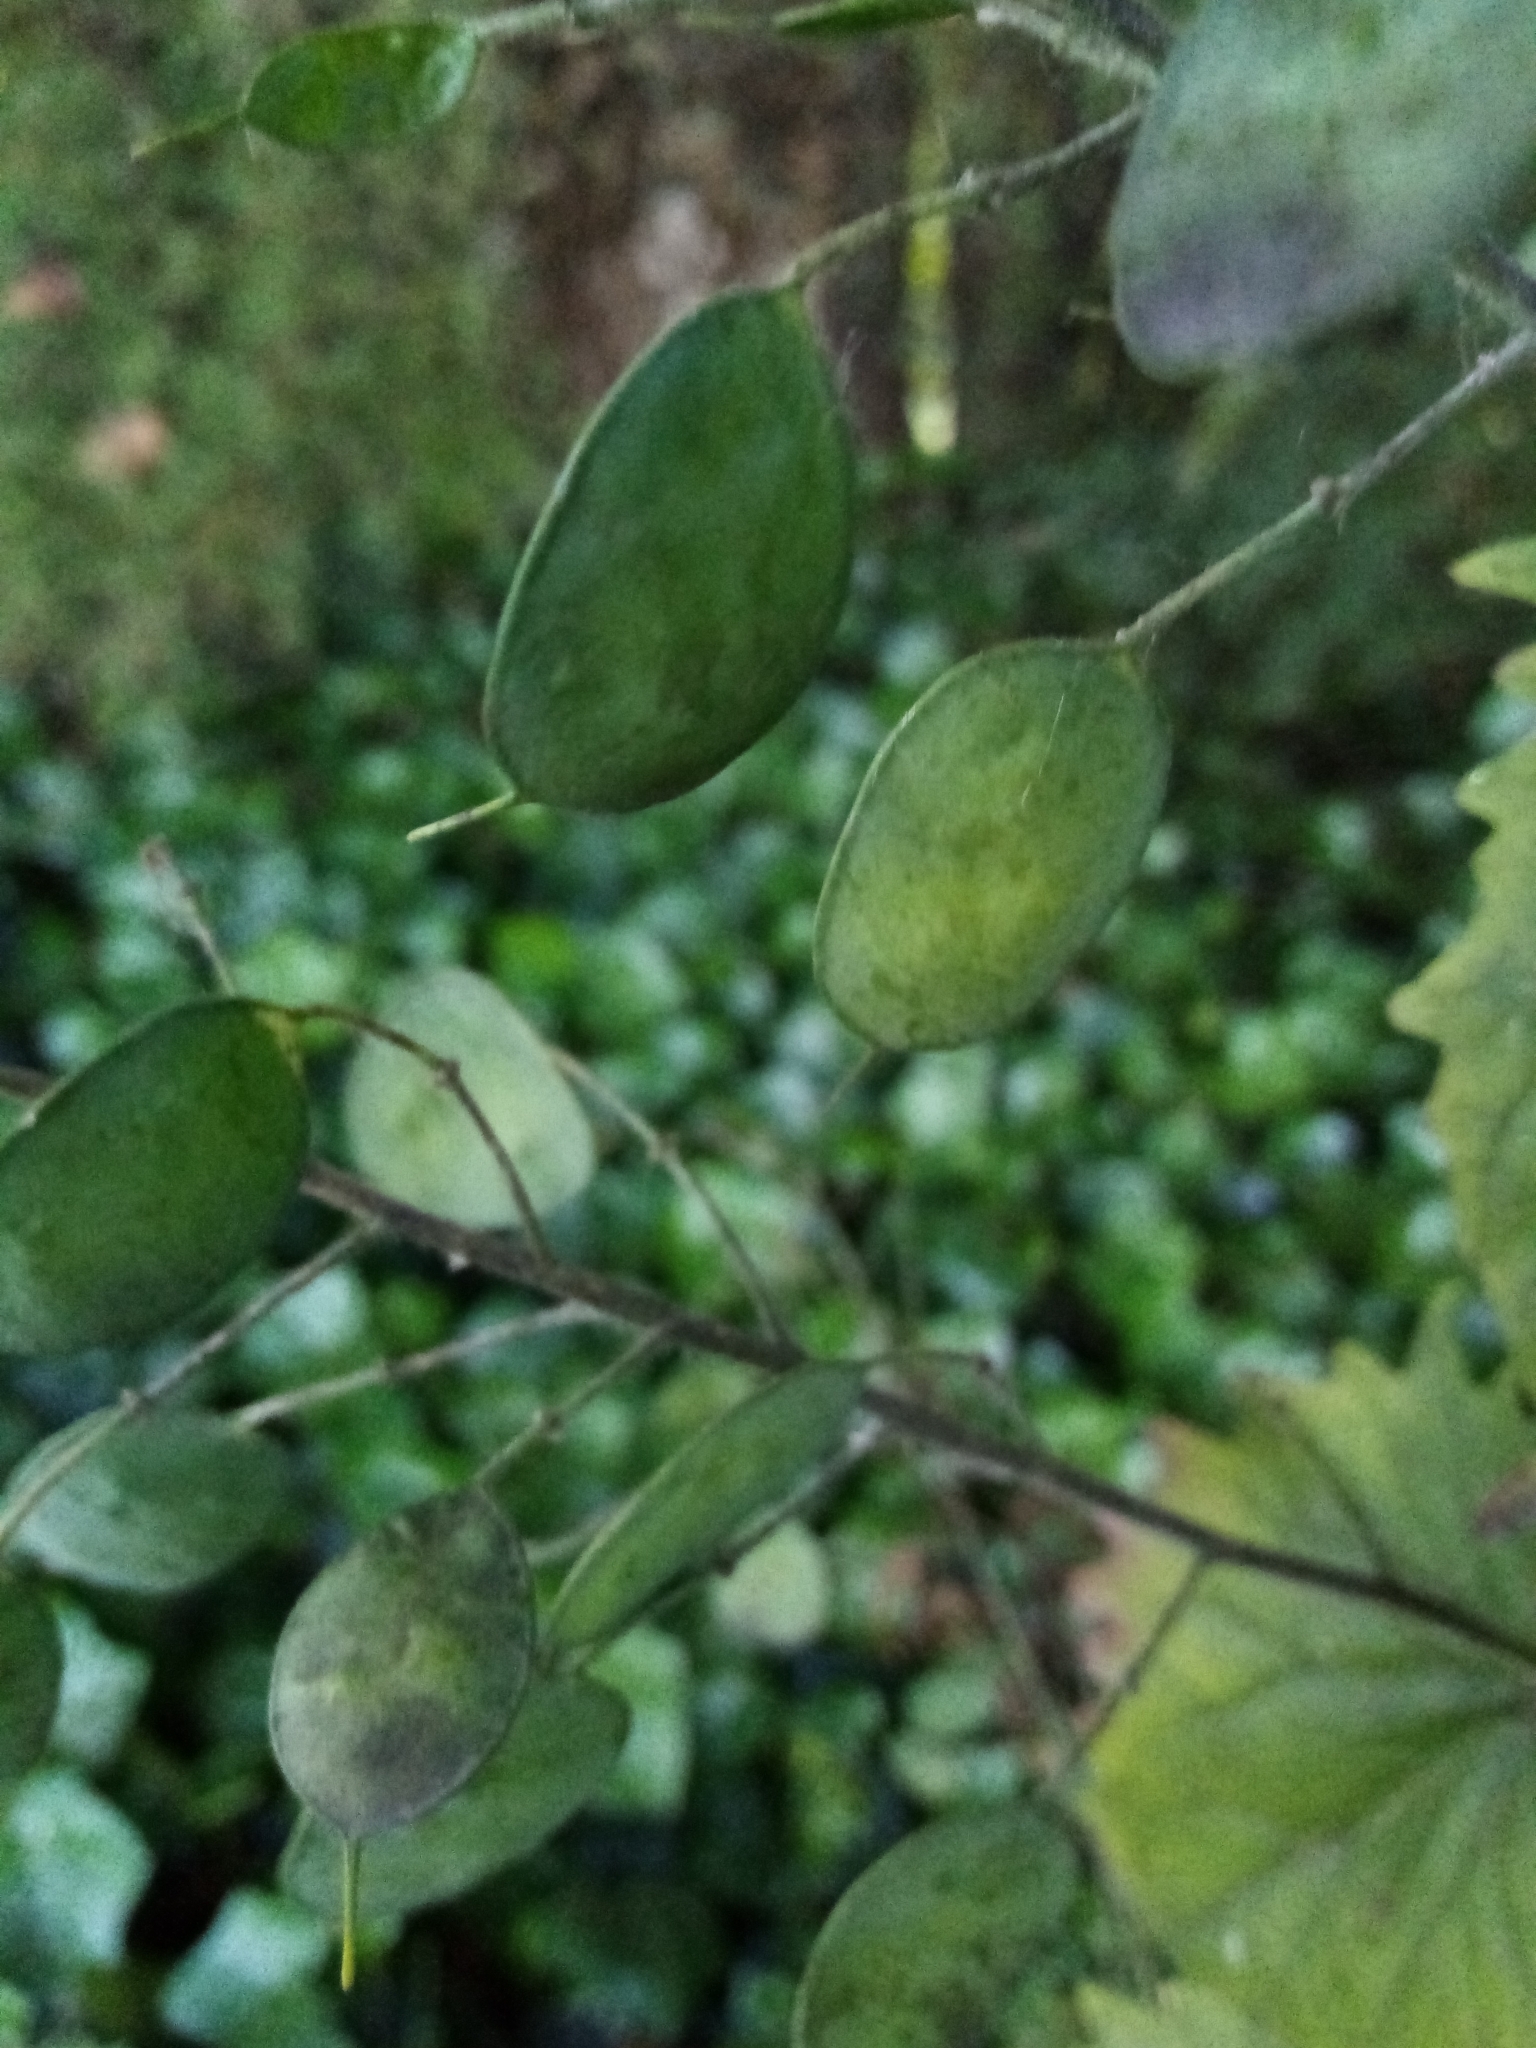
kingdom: Plantae
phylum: Tracheophyta
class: Magnoliopsida
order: Brassicales
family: Brassicaceae
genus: Lunaria
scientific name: Lunaria annua
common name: Honesty
